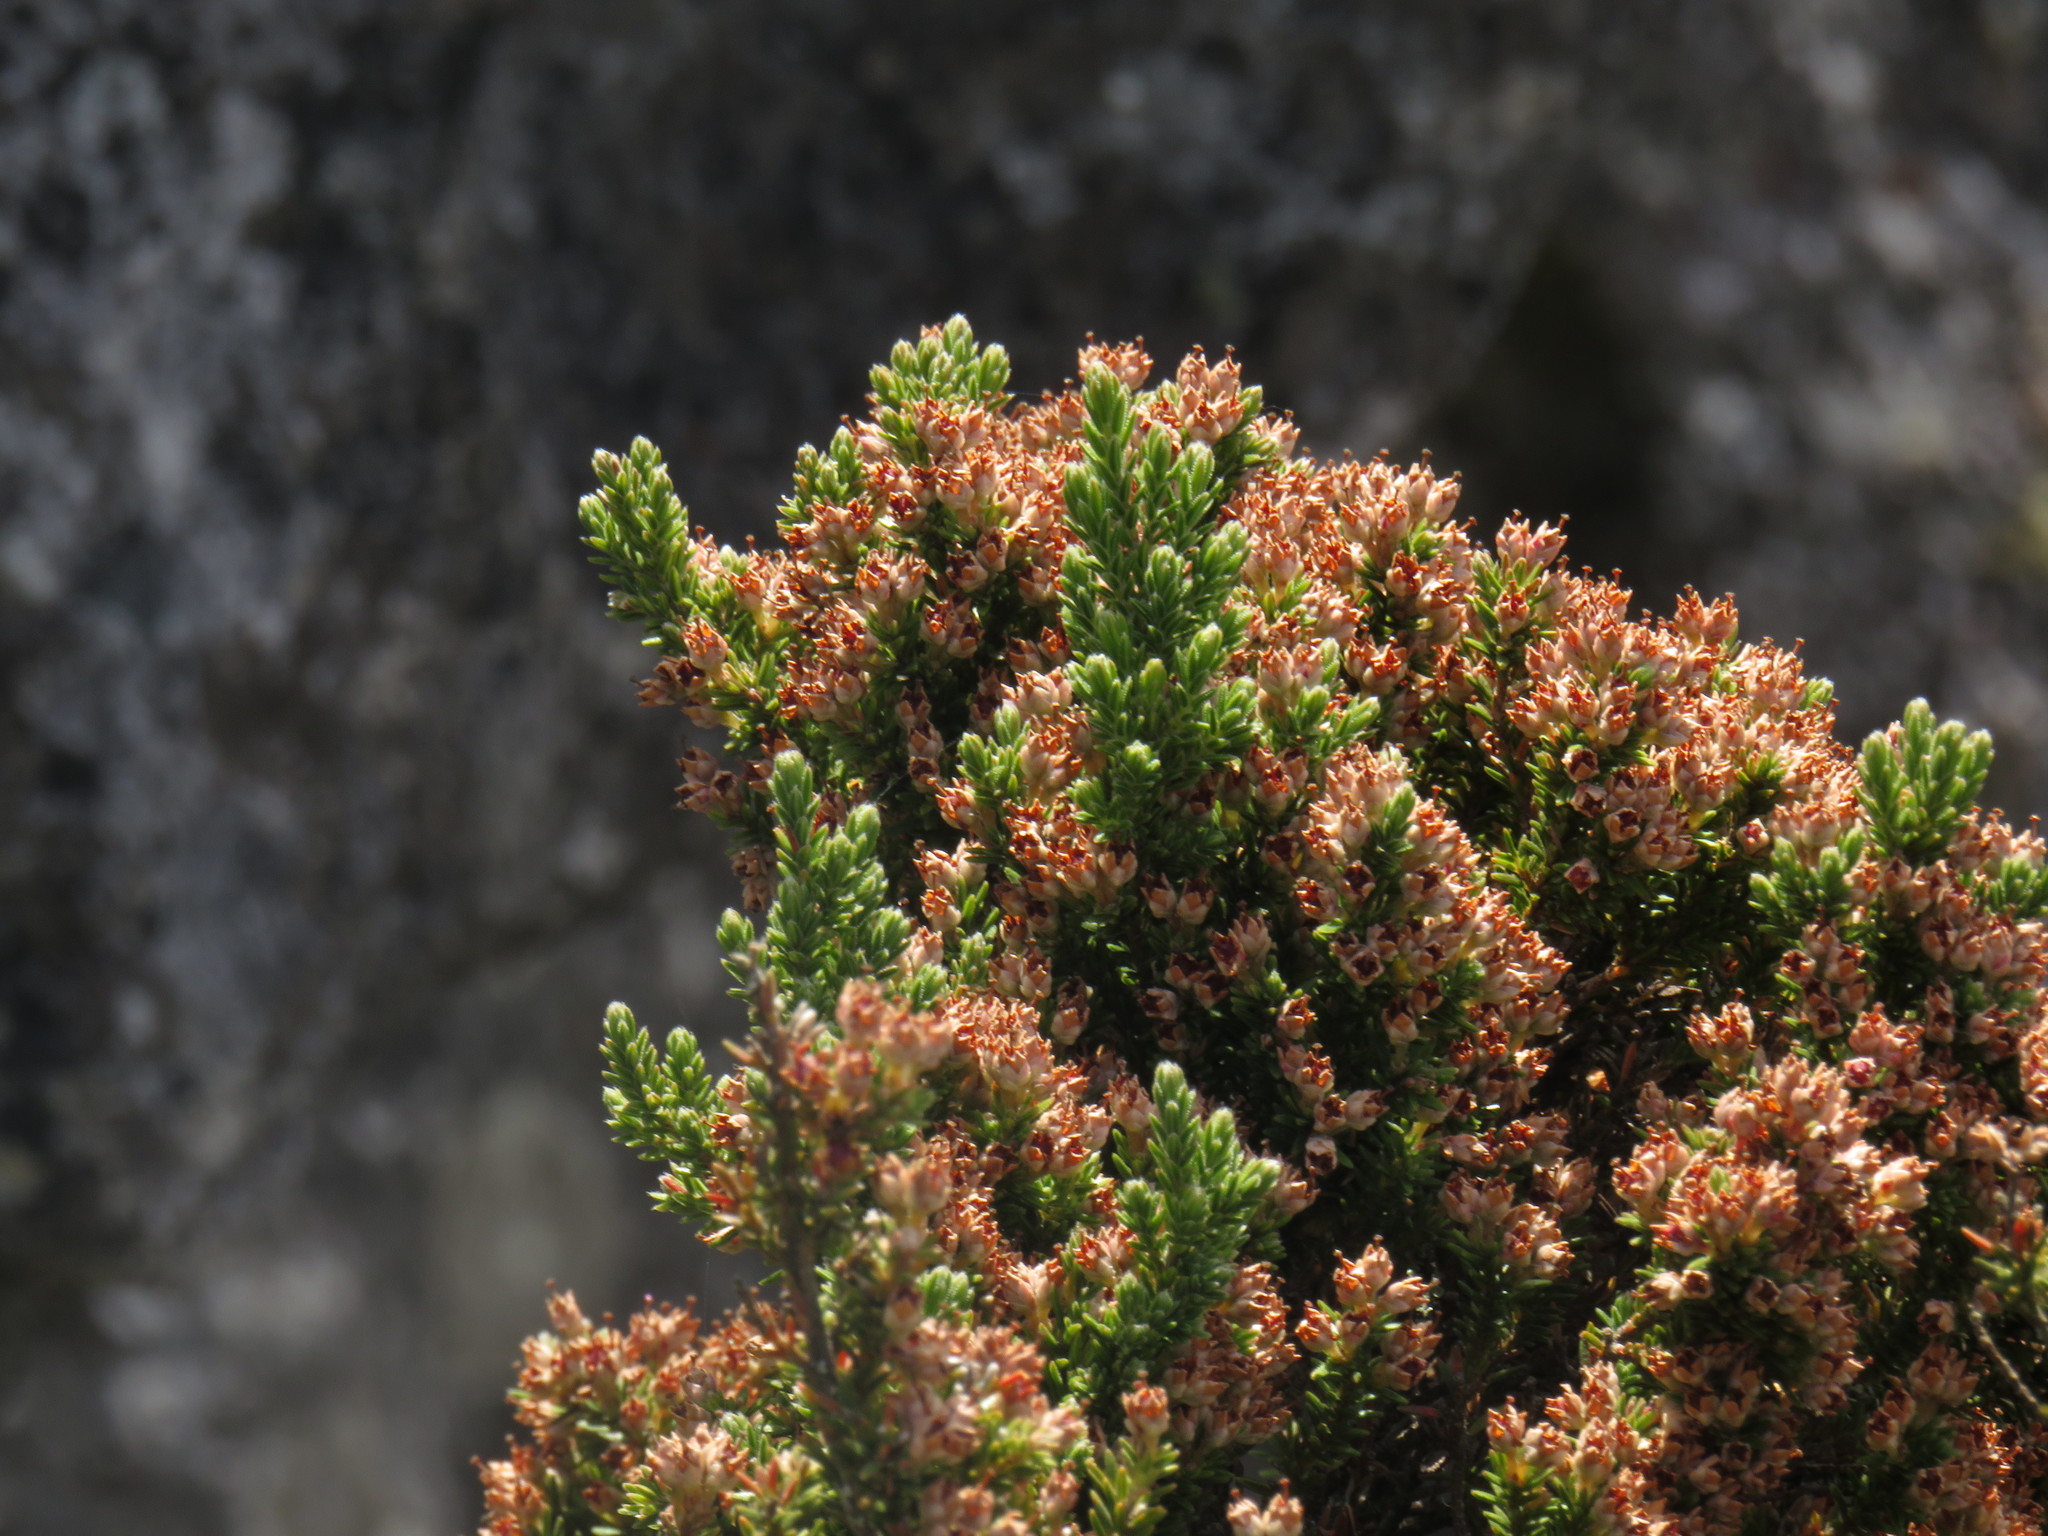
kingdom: Plantae
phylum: Tracheophyta
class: Magnoliopsida
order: Ericales
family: Ericaceae
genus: Erica
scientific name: Erica diosmifolia
